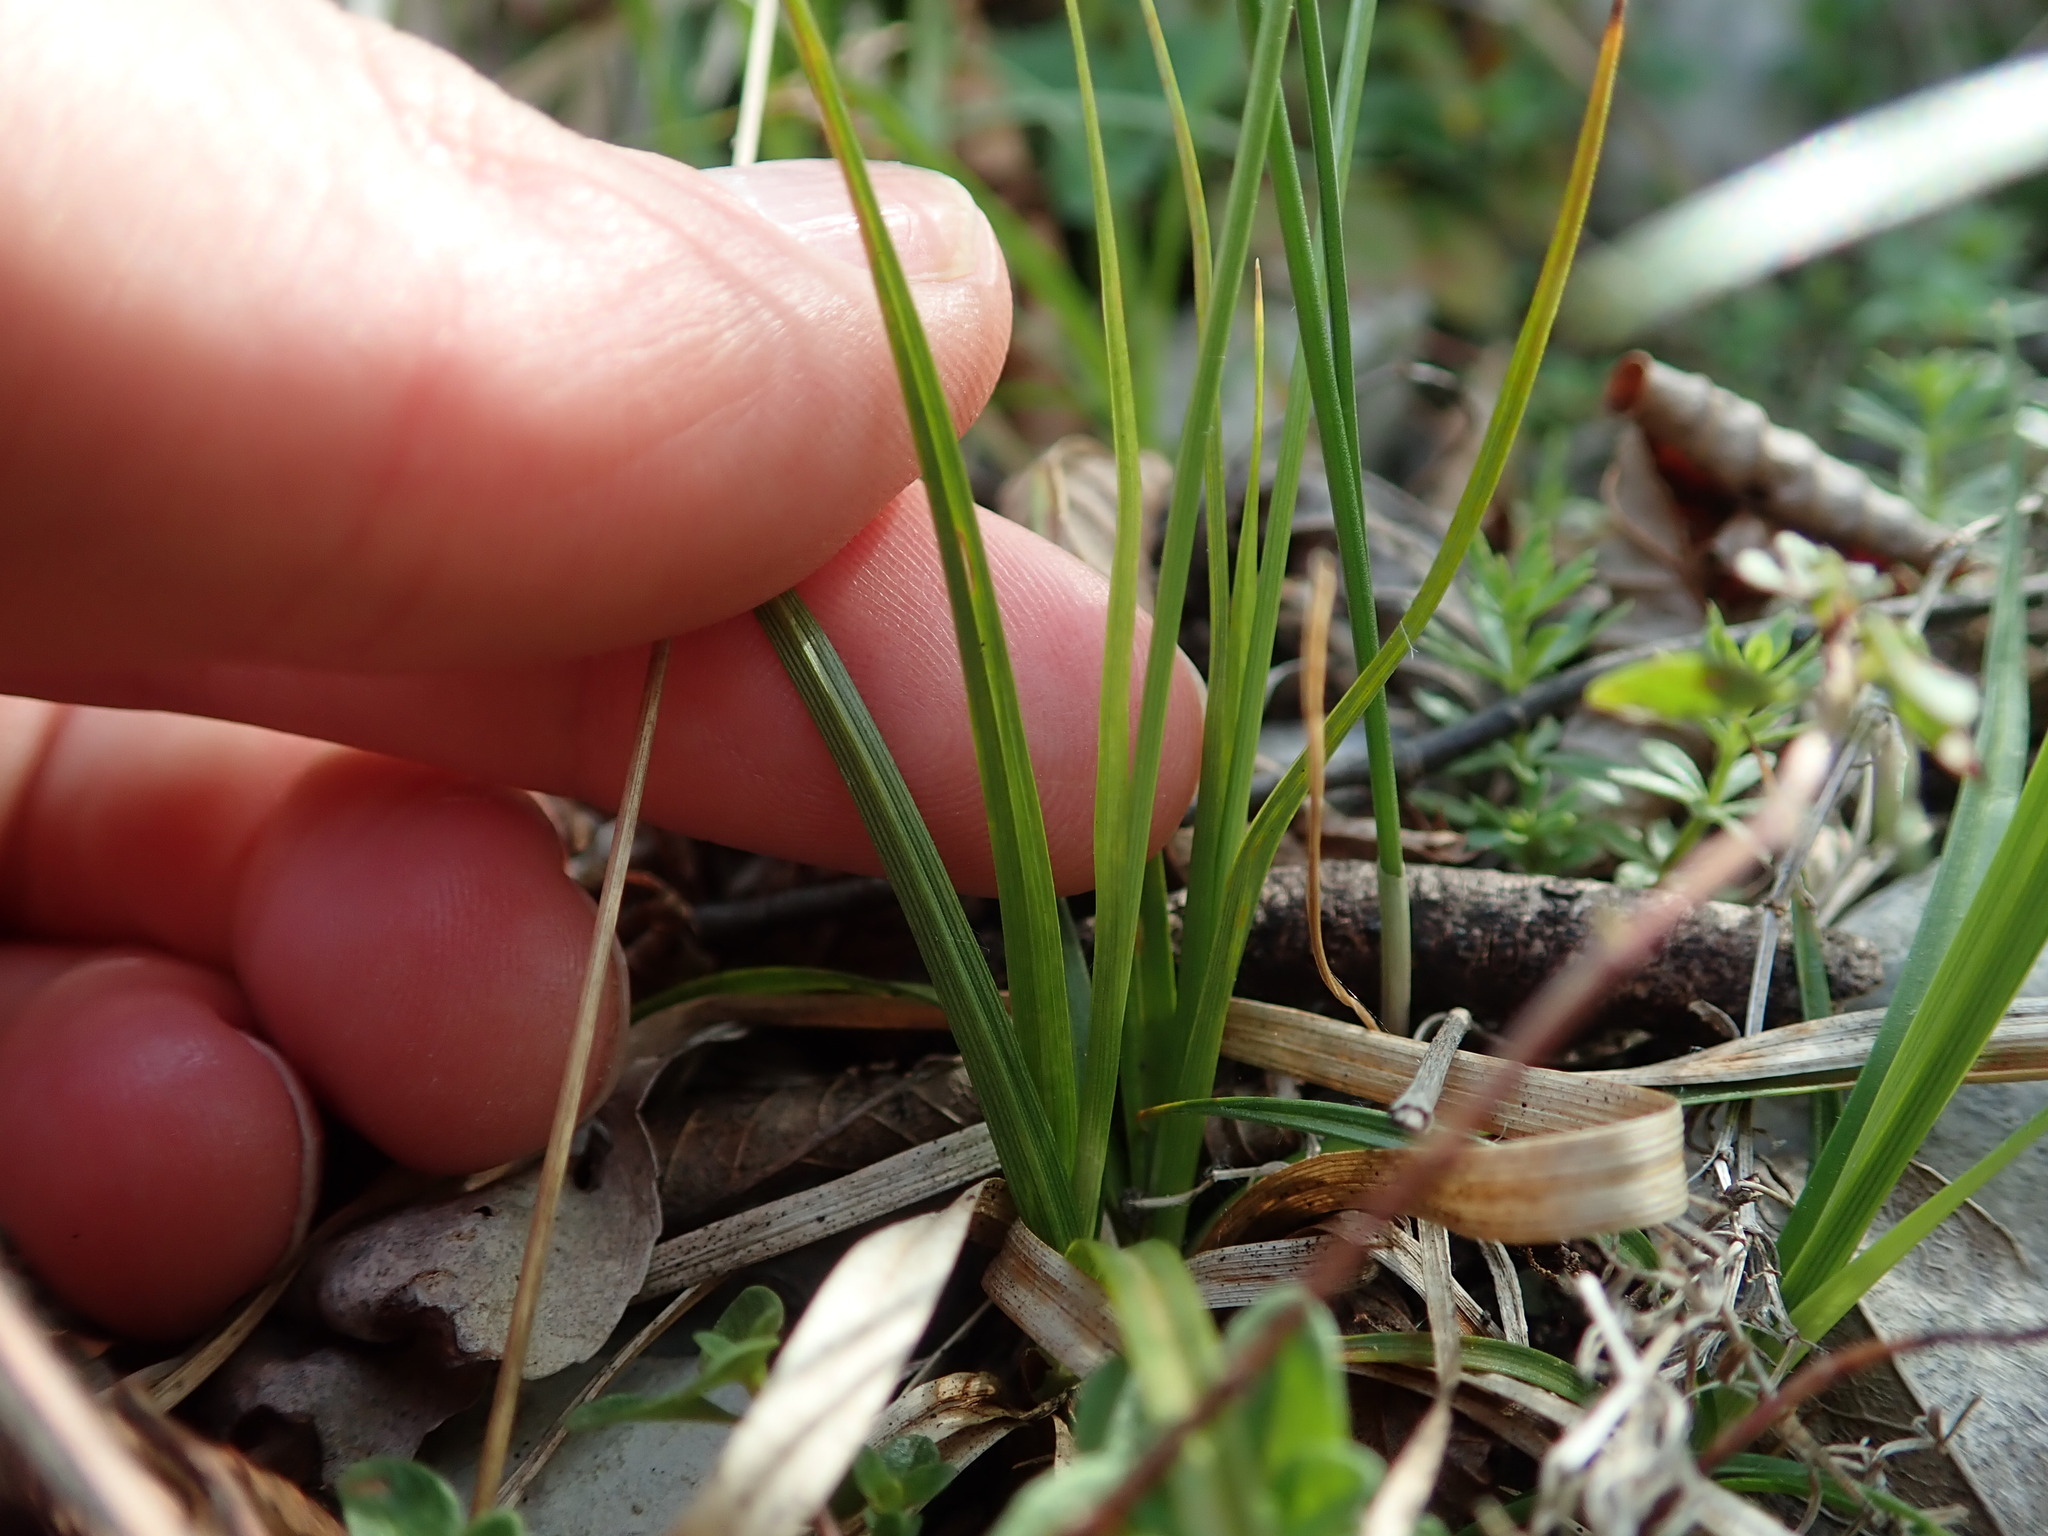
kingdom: Plantae
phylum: Tracheophyta
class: Liliopsida
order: Poales
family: Cyperaceae
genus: Carex
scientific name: Carex caryophyllea
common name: Spring sedge
